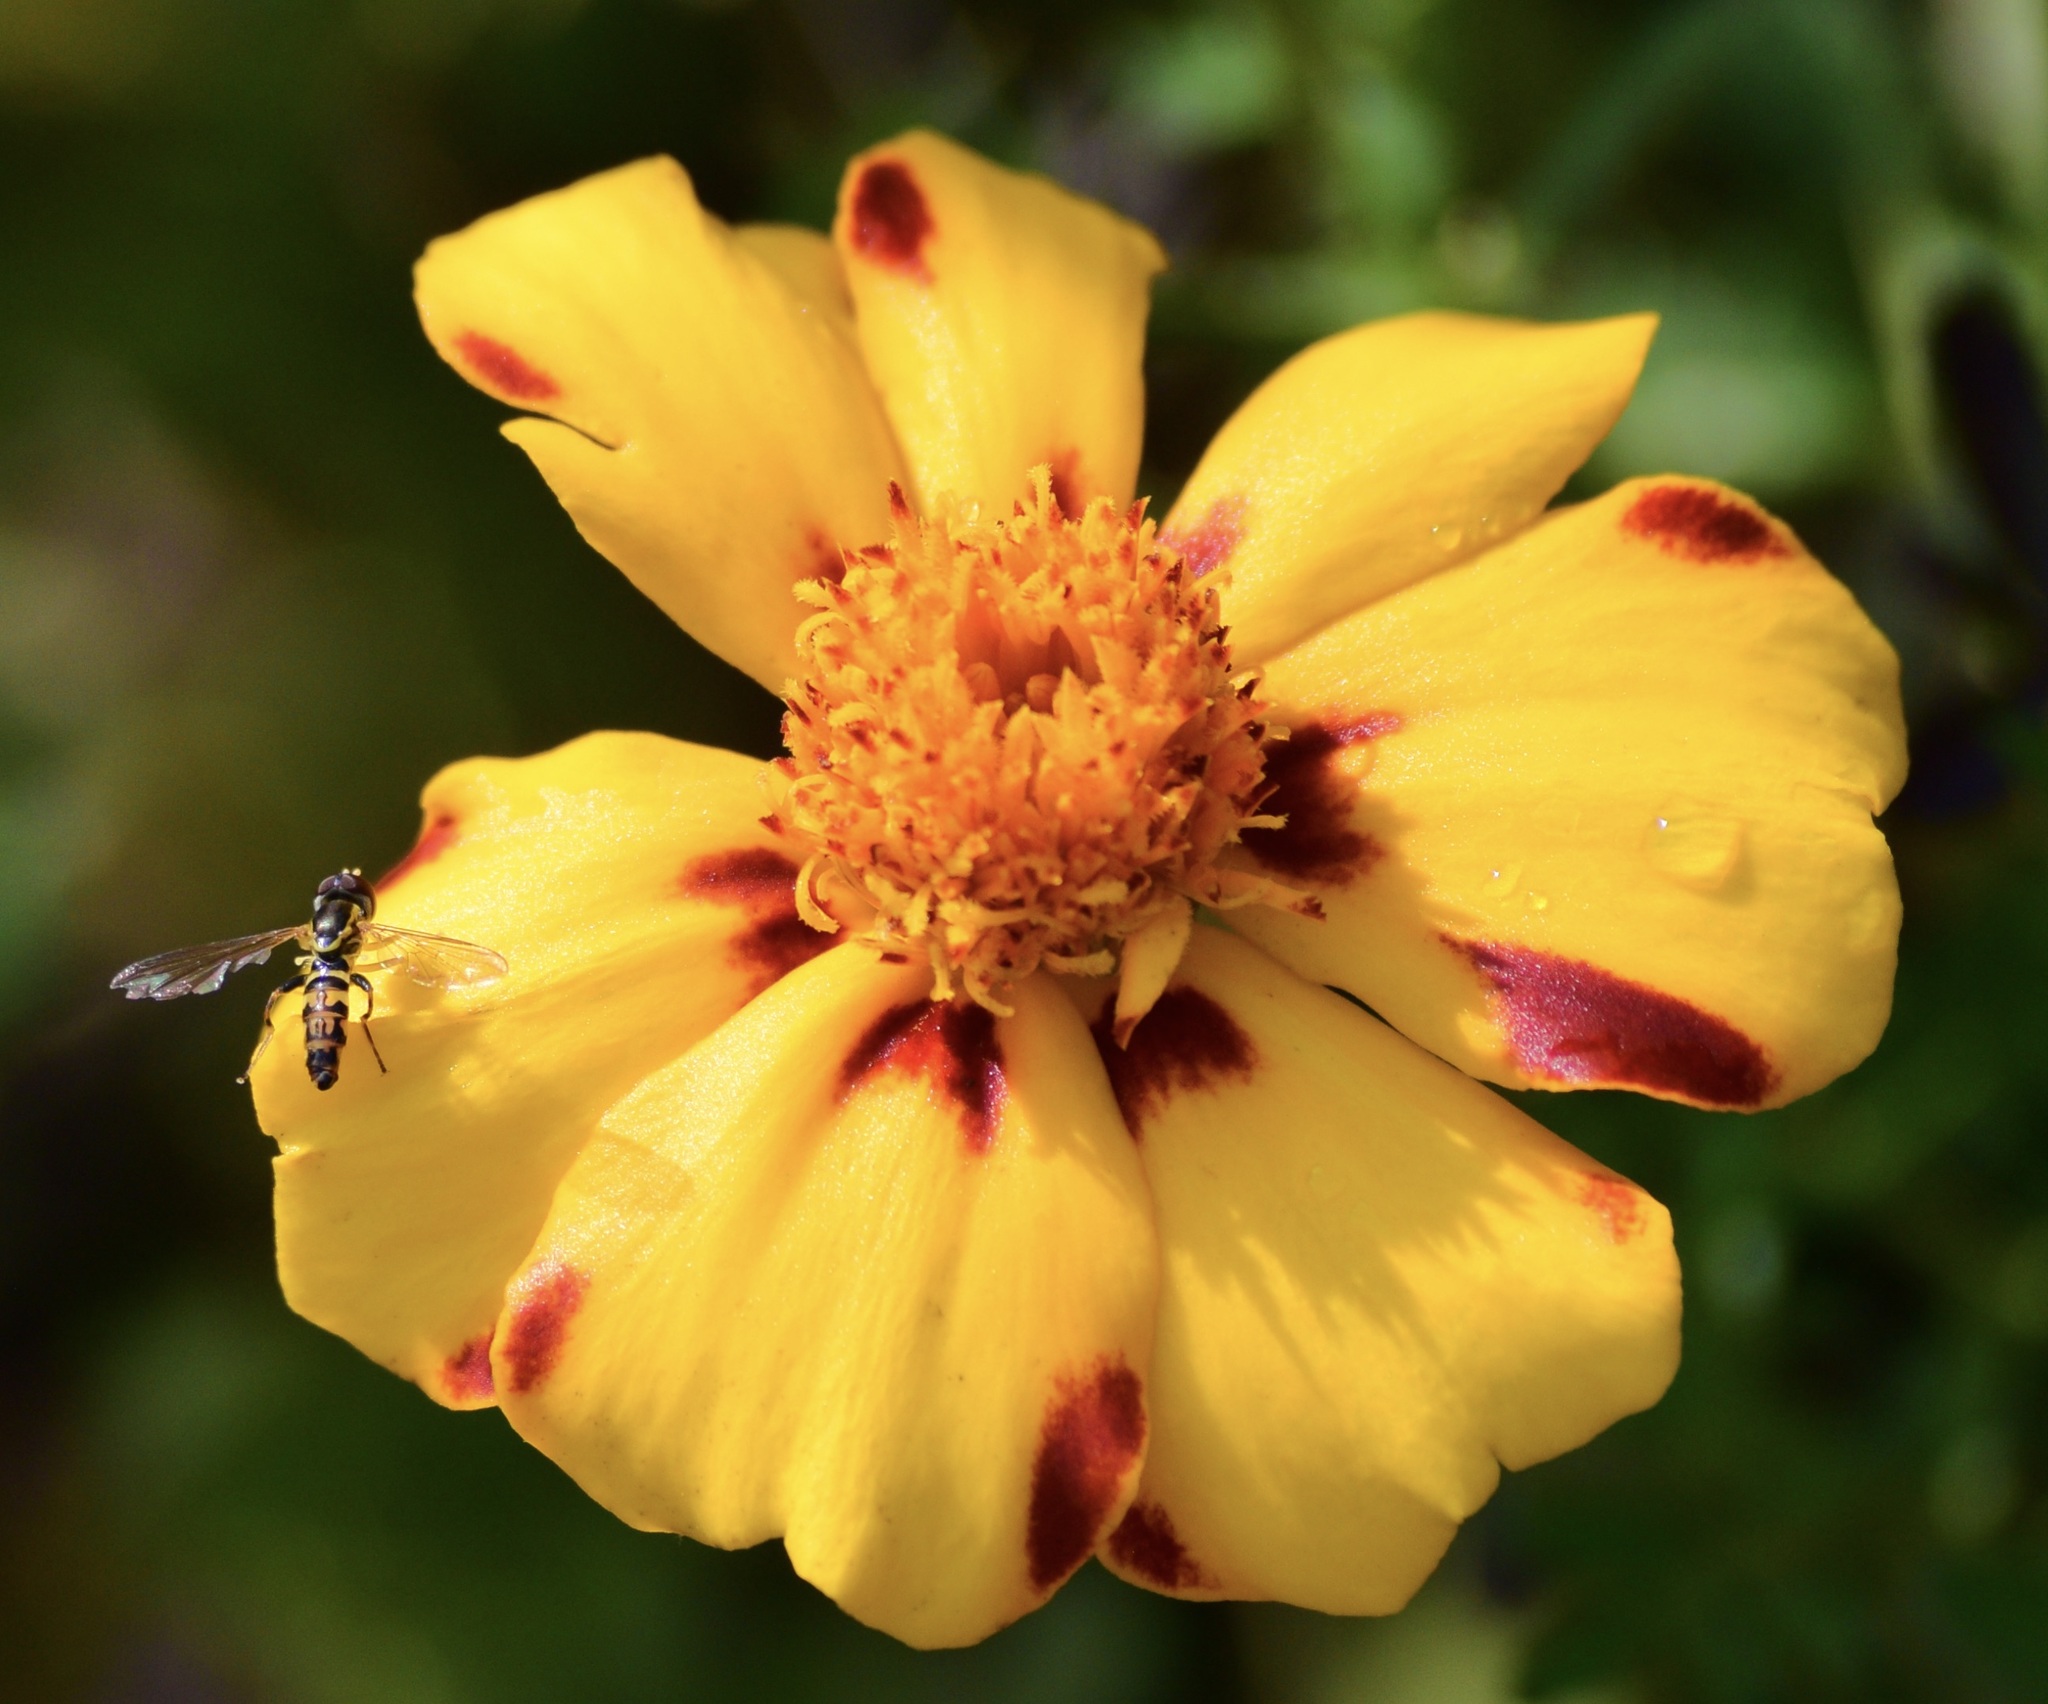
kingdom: Animalia
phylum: Arthropoda
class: Insecta
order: Diptera
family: Syrphidae
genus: Toxomerus
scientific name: Toxomerus geminatus
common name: Eastern calligrapher
